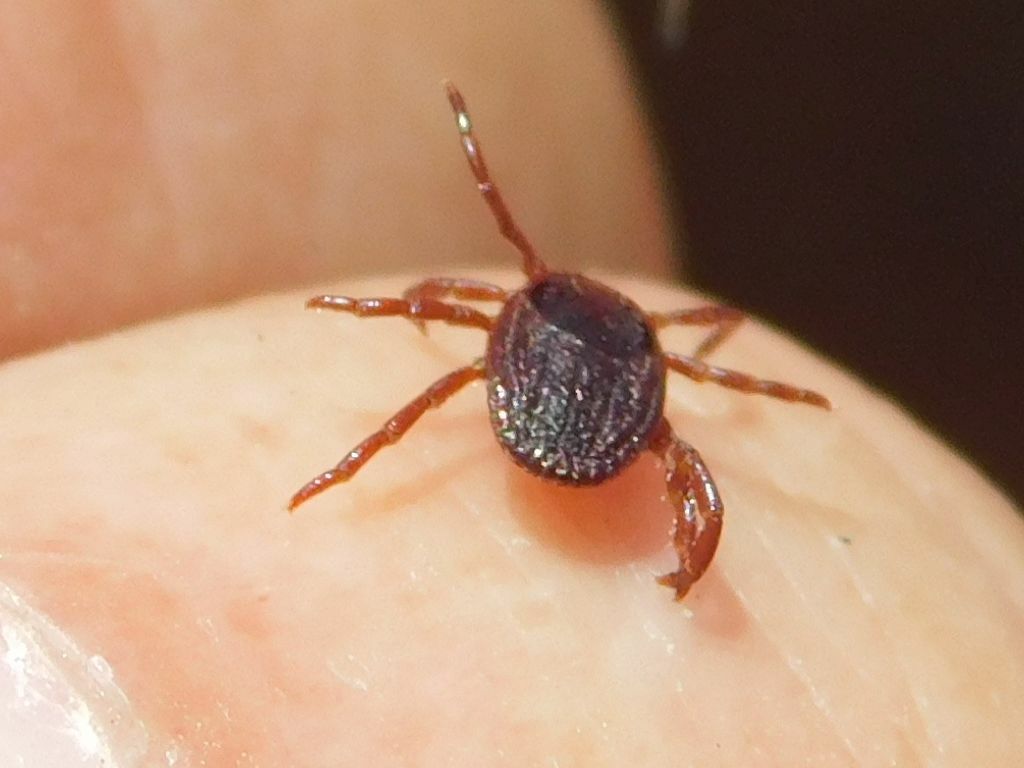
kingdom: Animalia
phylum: Arthropoda
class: Arachnida
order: Ixodida
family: Ixodidae
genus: Rhipicephalus
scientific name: Rhipicephalus sanguineus
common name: Brown dog tick
